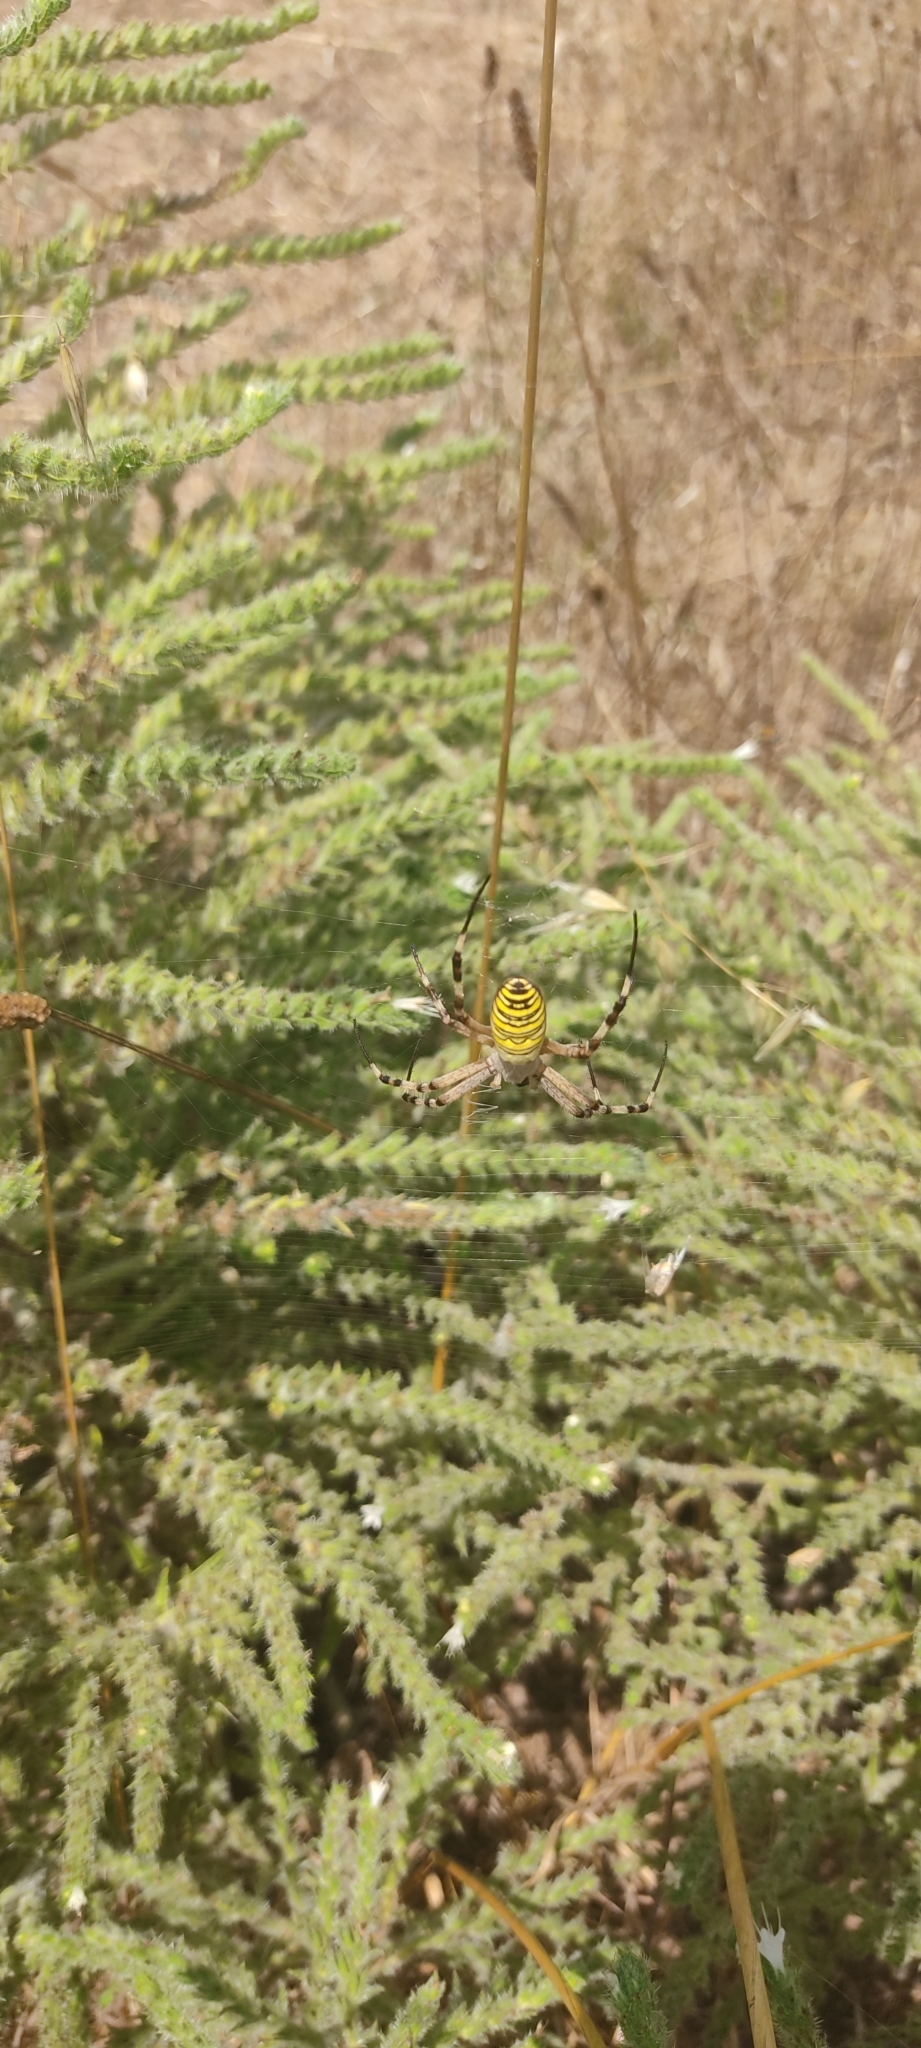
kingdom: Animalia
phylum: Arthropoda
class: Arachnida
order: Araneae
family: Araneidae
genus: Argiope
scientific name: Argiope bruennichi
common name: Wasp spider
